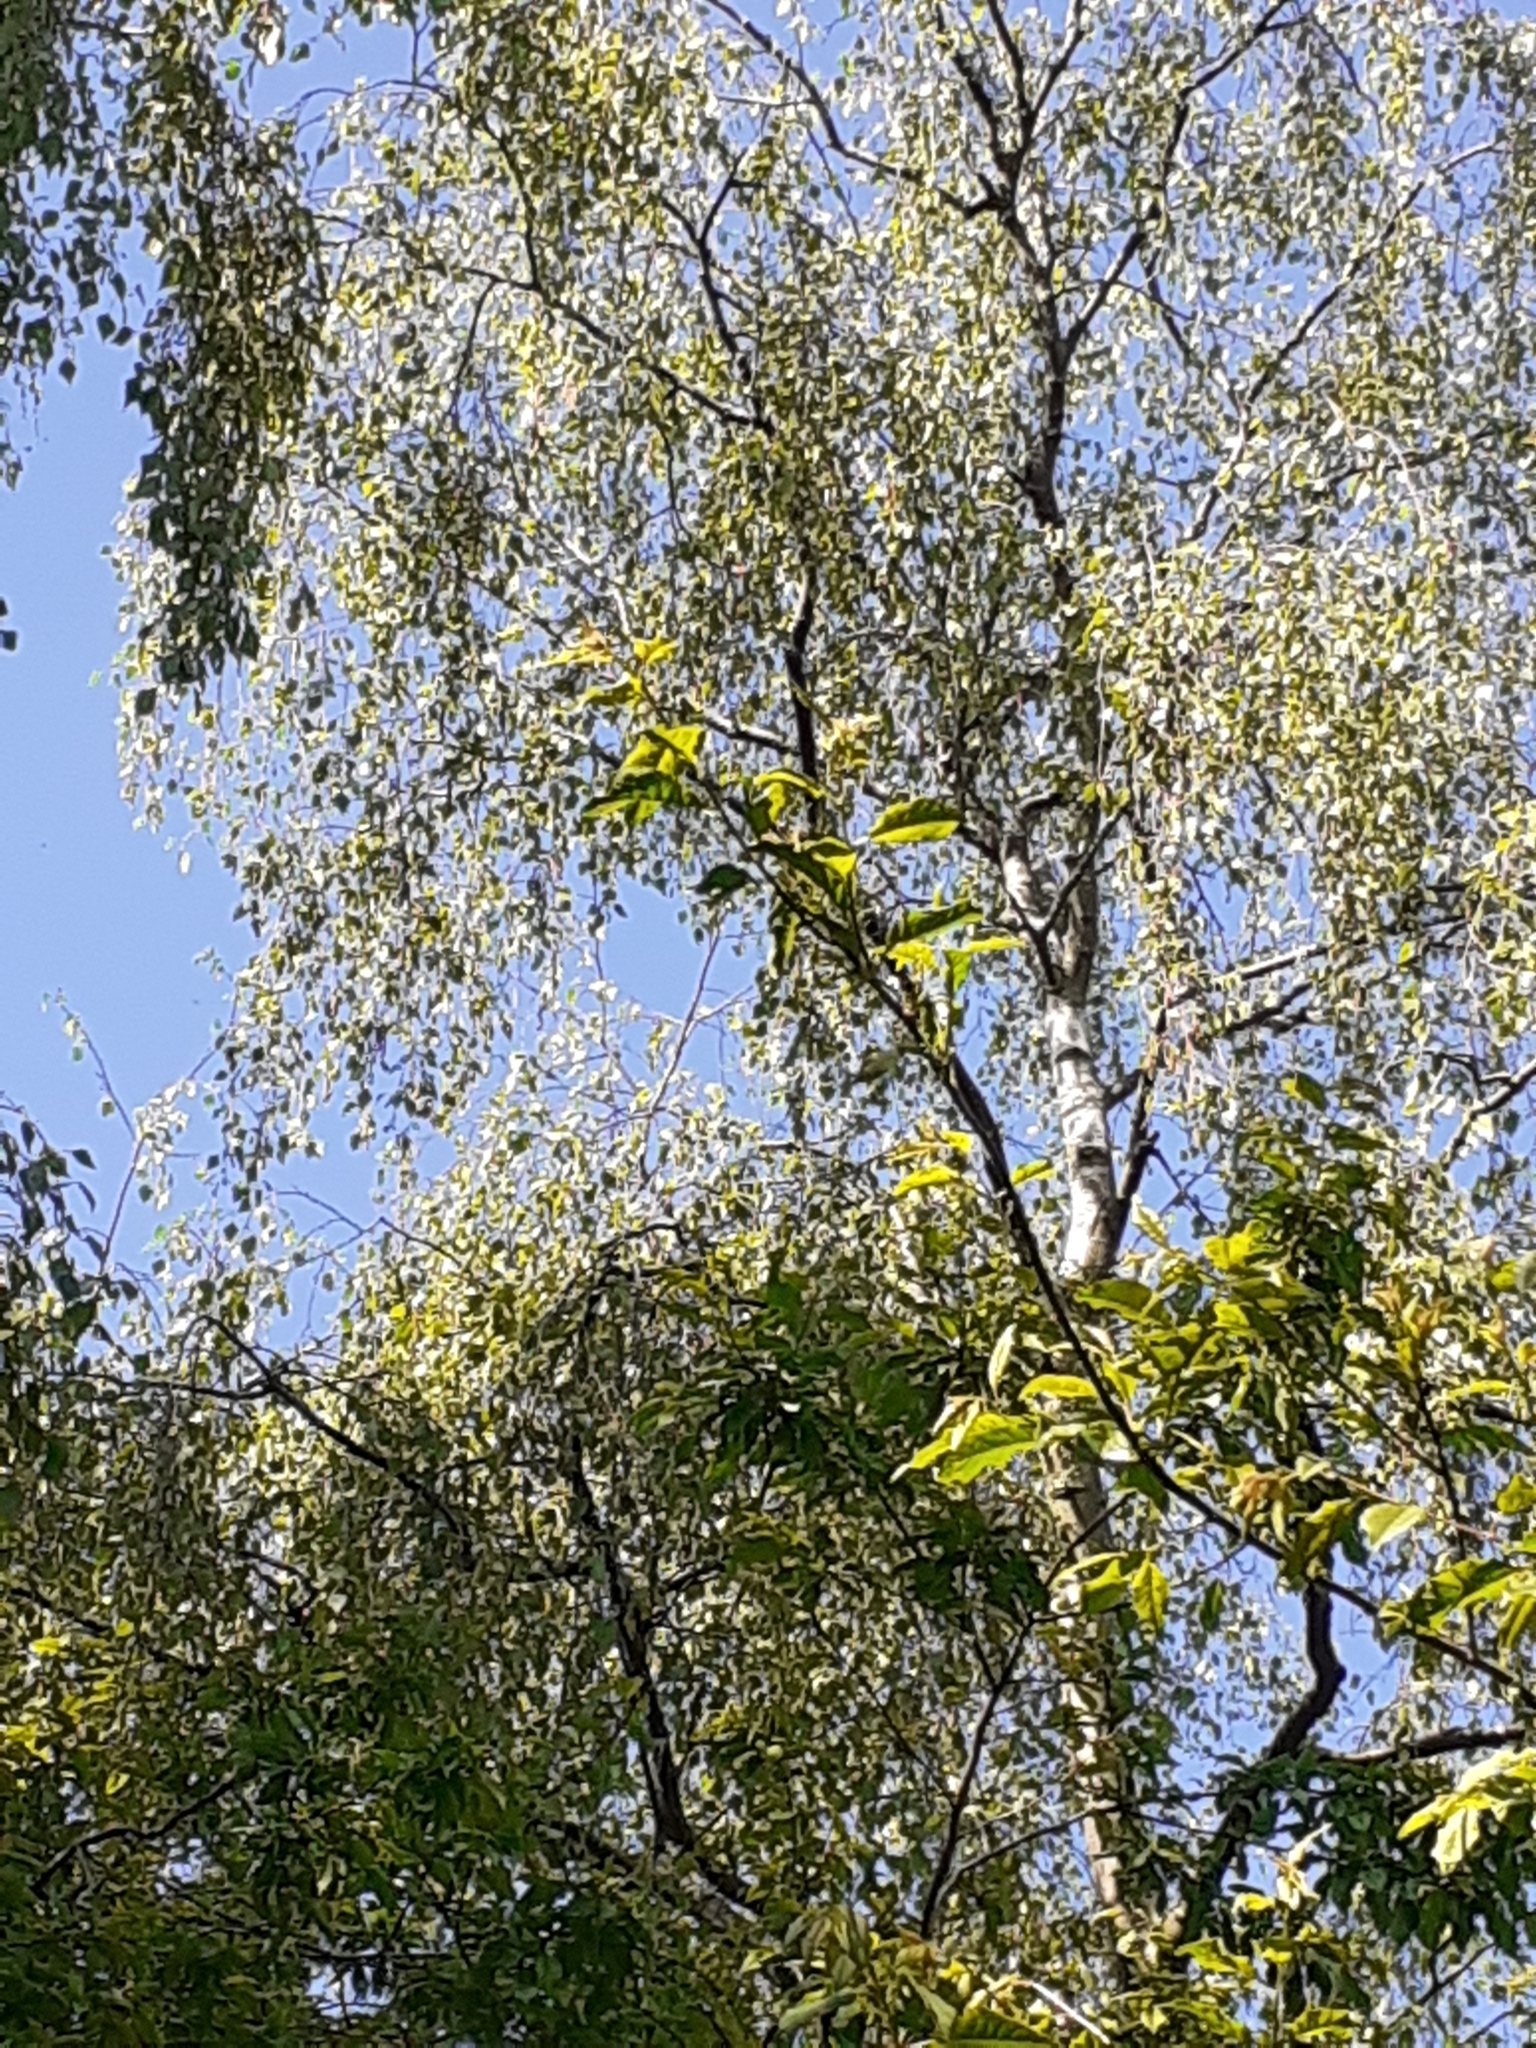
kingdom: Plantae
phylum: Tracheophyta
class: Magnoliopsida
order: Fagales
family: Betulaceae
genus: Betula
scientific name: Betula pendula
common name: Silver birch
